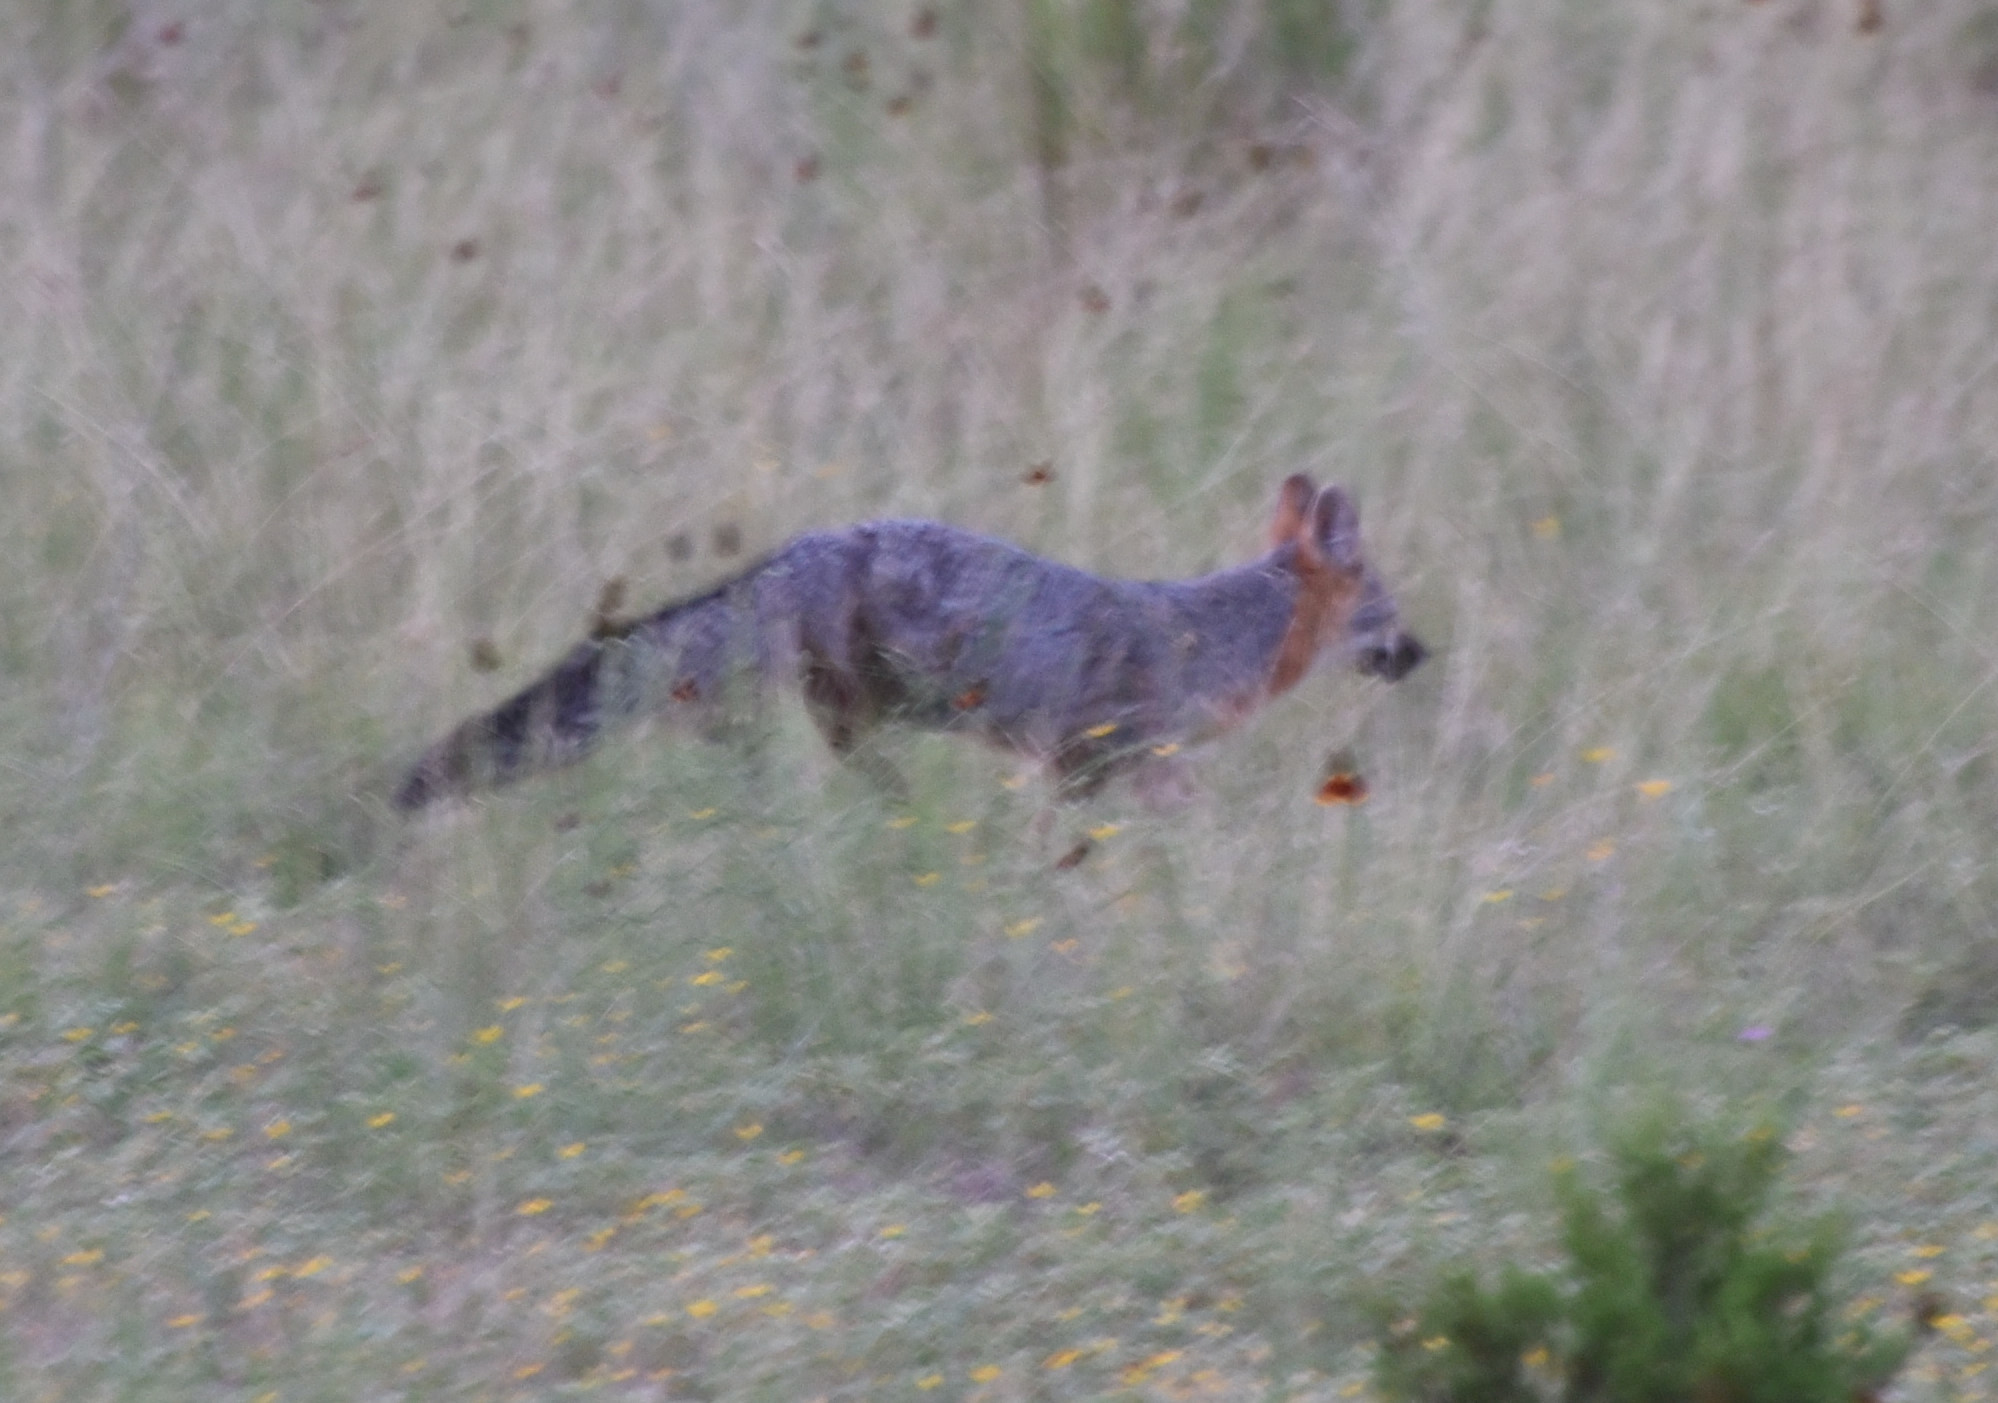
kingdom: Animalia
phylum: Chordata
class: Mammalia
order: Carnivora
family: Canidae
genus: Urocyon
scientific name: Urocyon cinereoargenteus
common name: Gray fox
